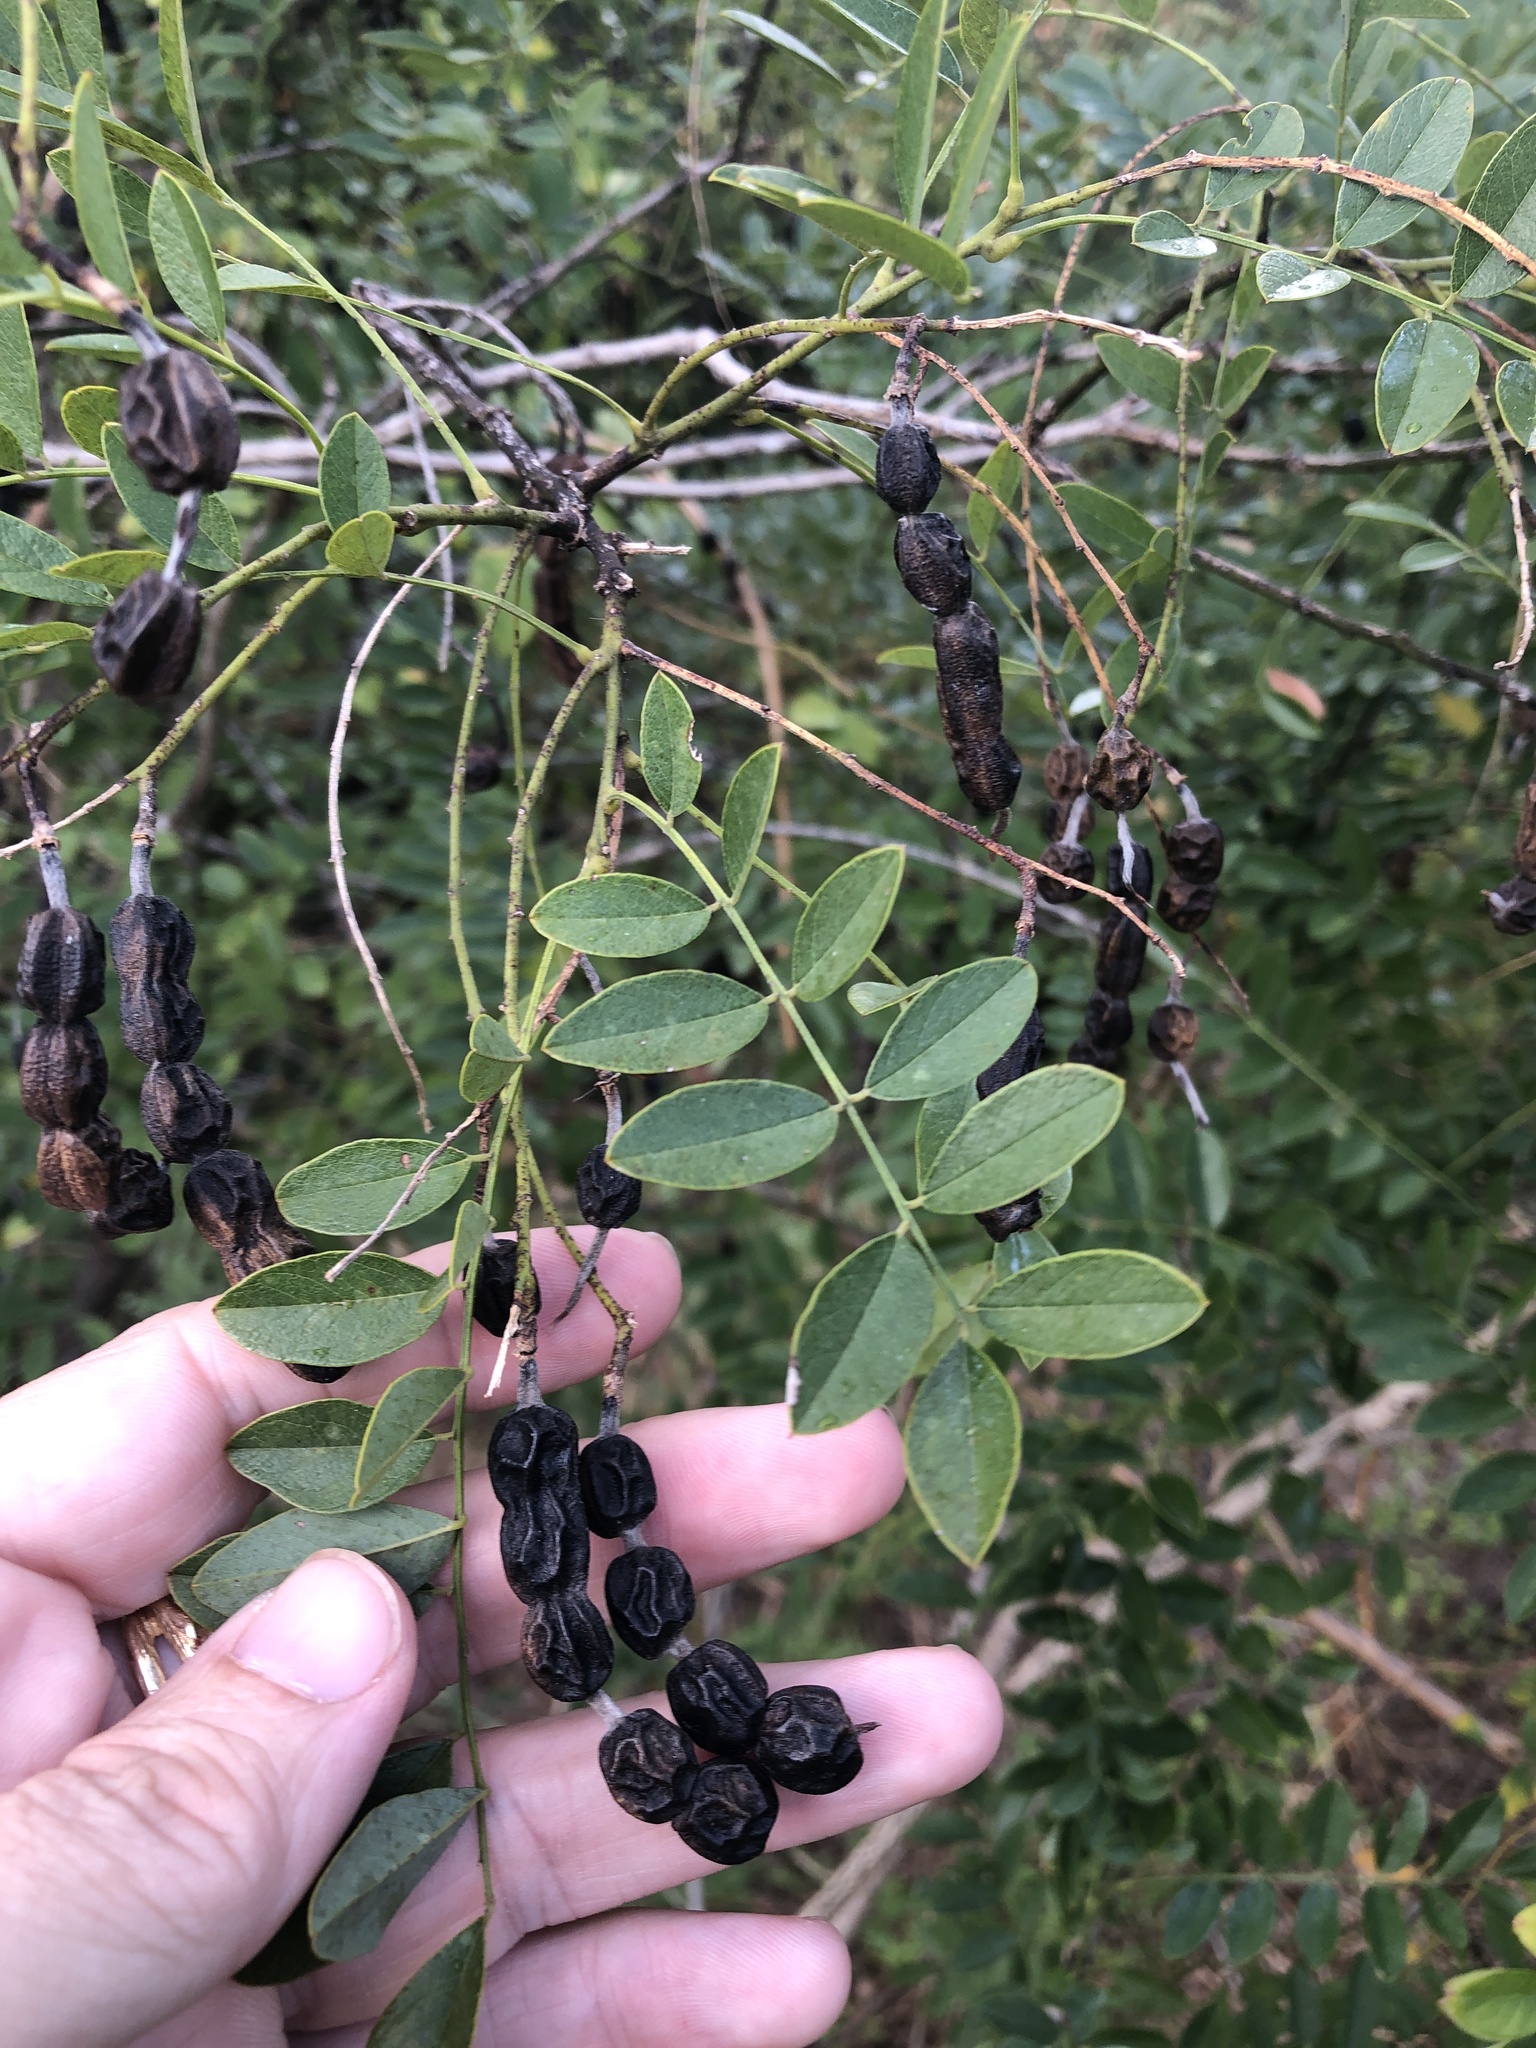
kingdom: Plantae
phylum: Tracheophyta
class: Magnoliopsida
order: Fabales
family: Fabaceae
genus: Styphnolobium
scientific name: Styphnolobium affine
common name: Texas sophora
